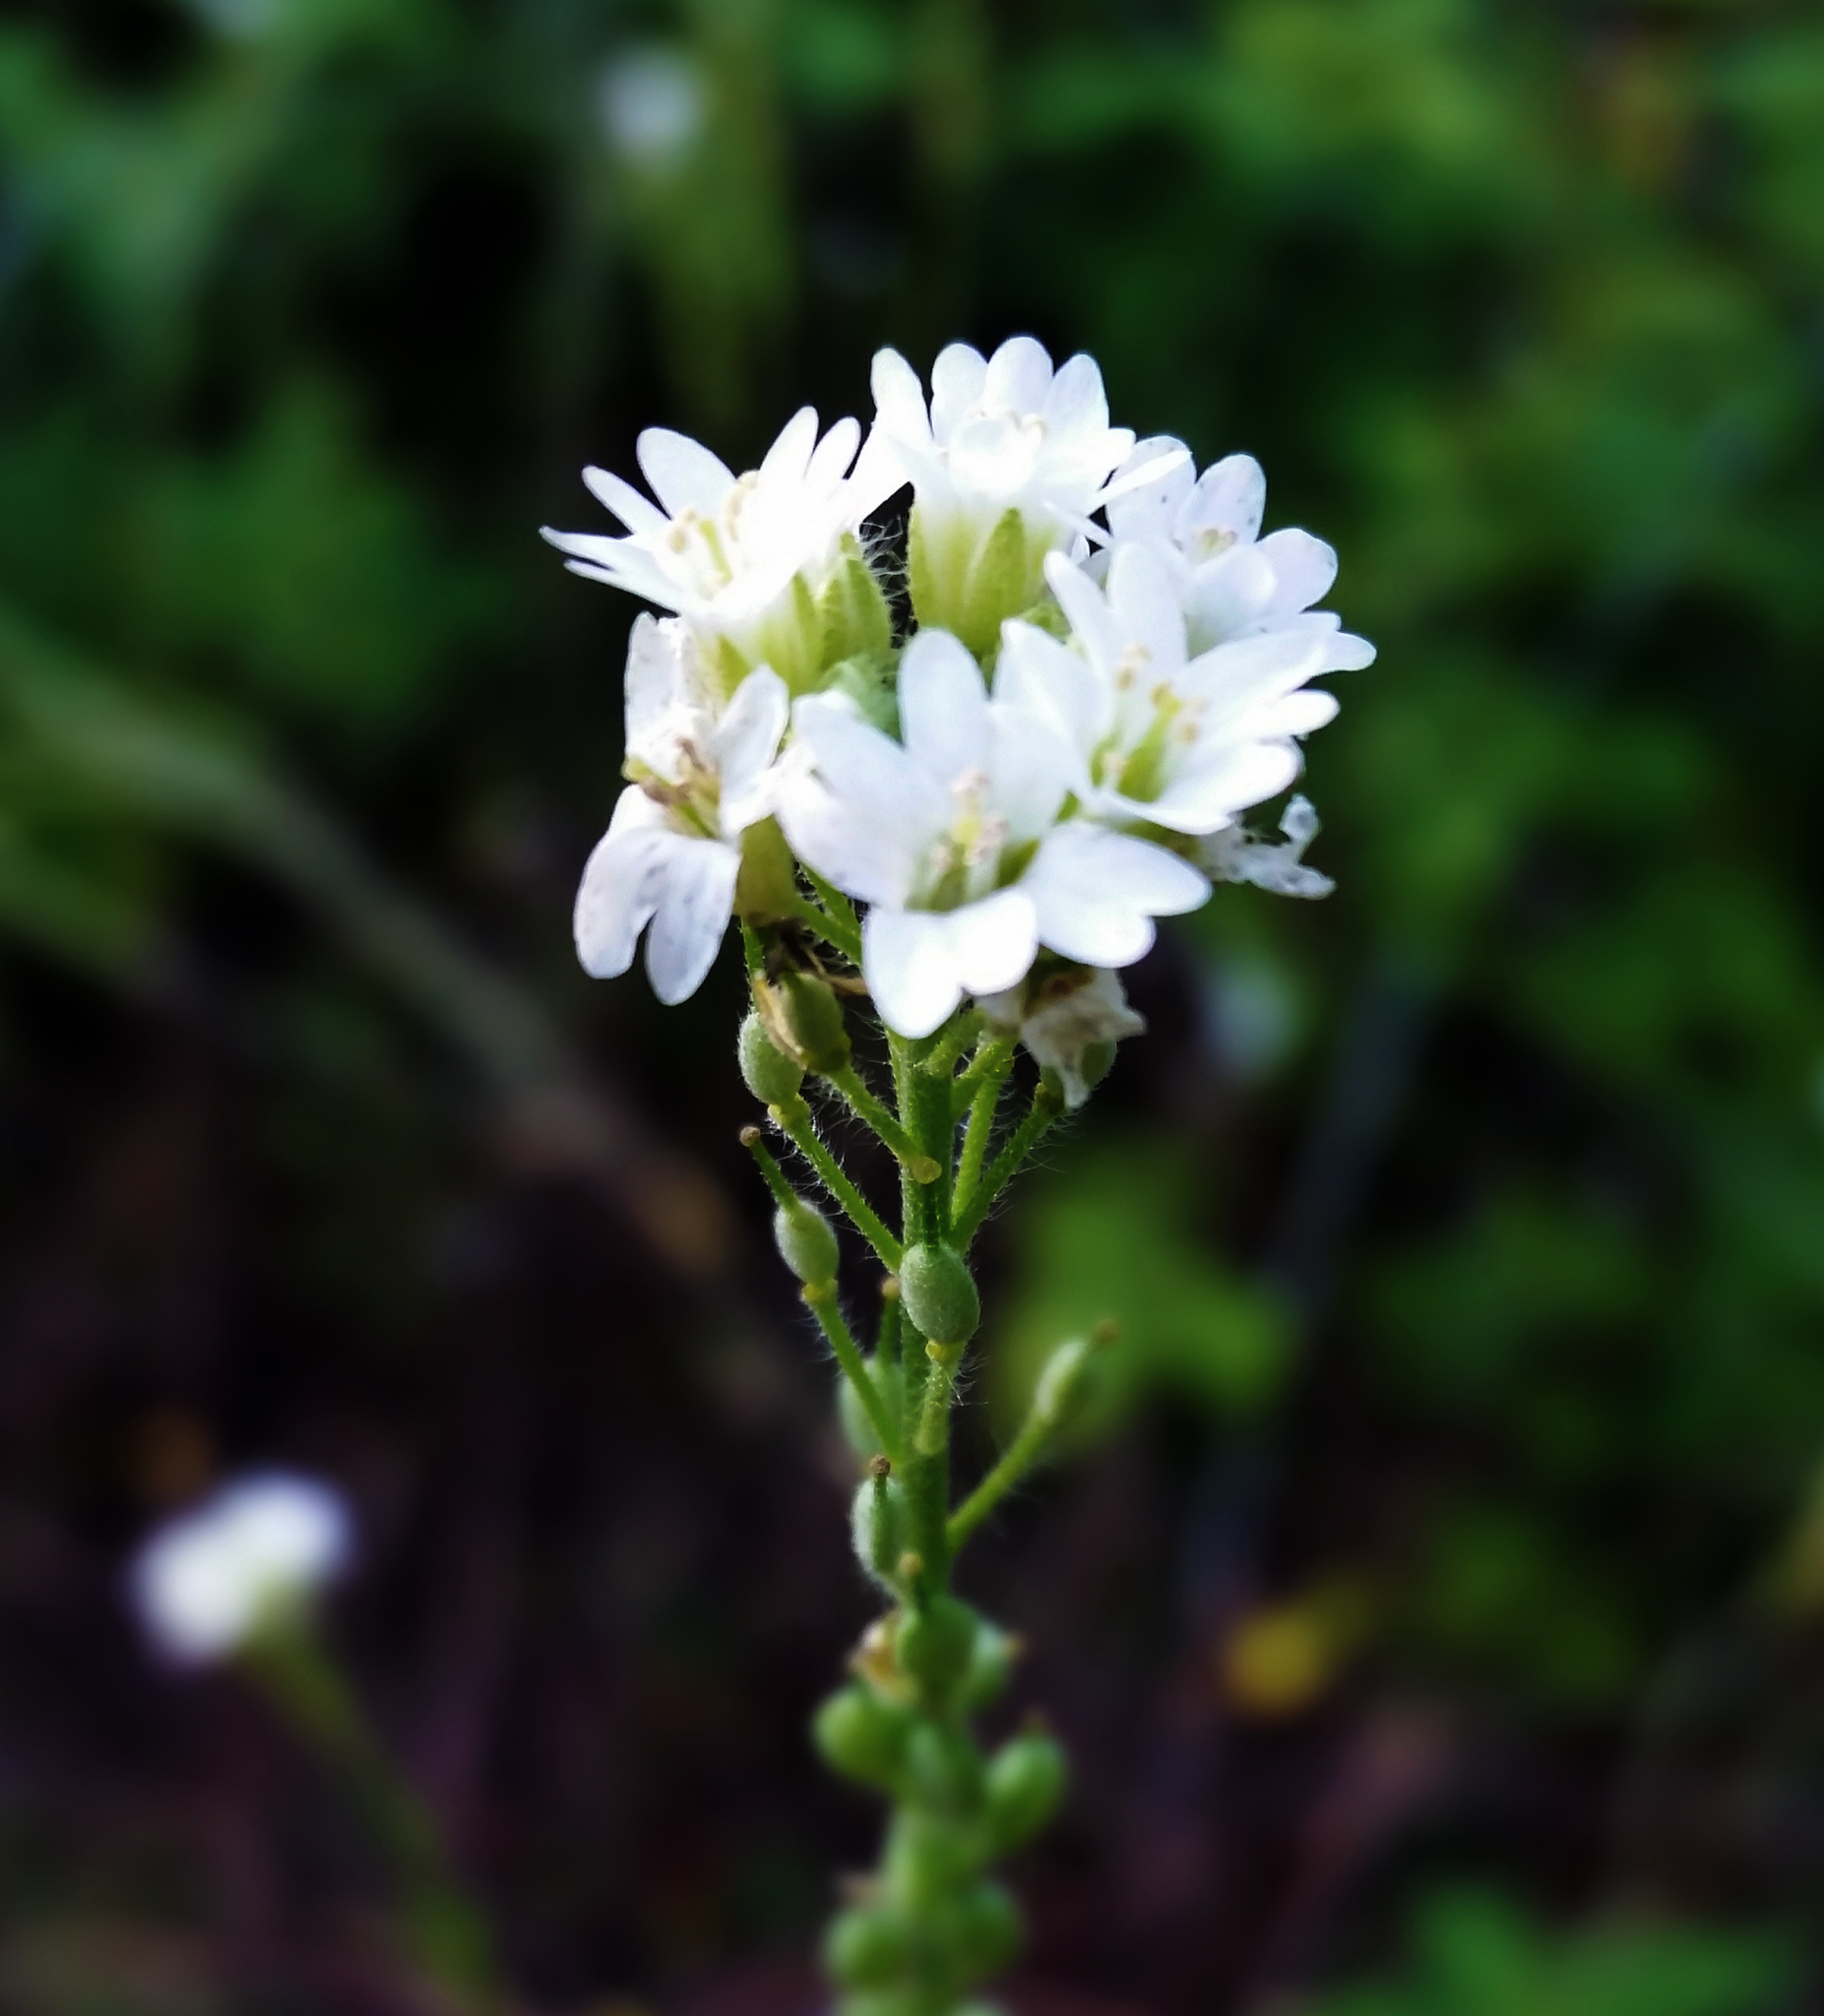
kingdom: Plantae
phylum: Tracheophyta
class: Magnoliopsida
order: Brassicales
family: Brassicaceae
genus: Berteroa
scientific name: Berteroa incana
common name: Hoary alison
